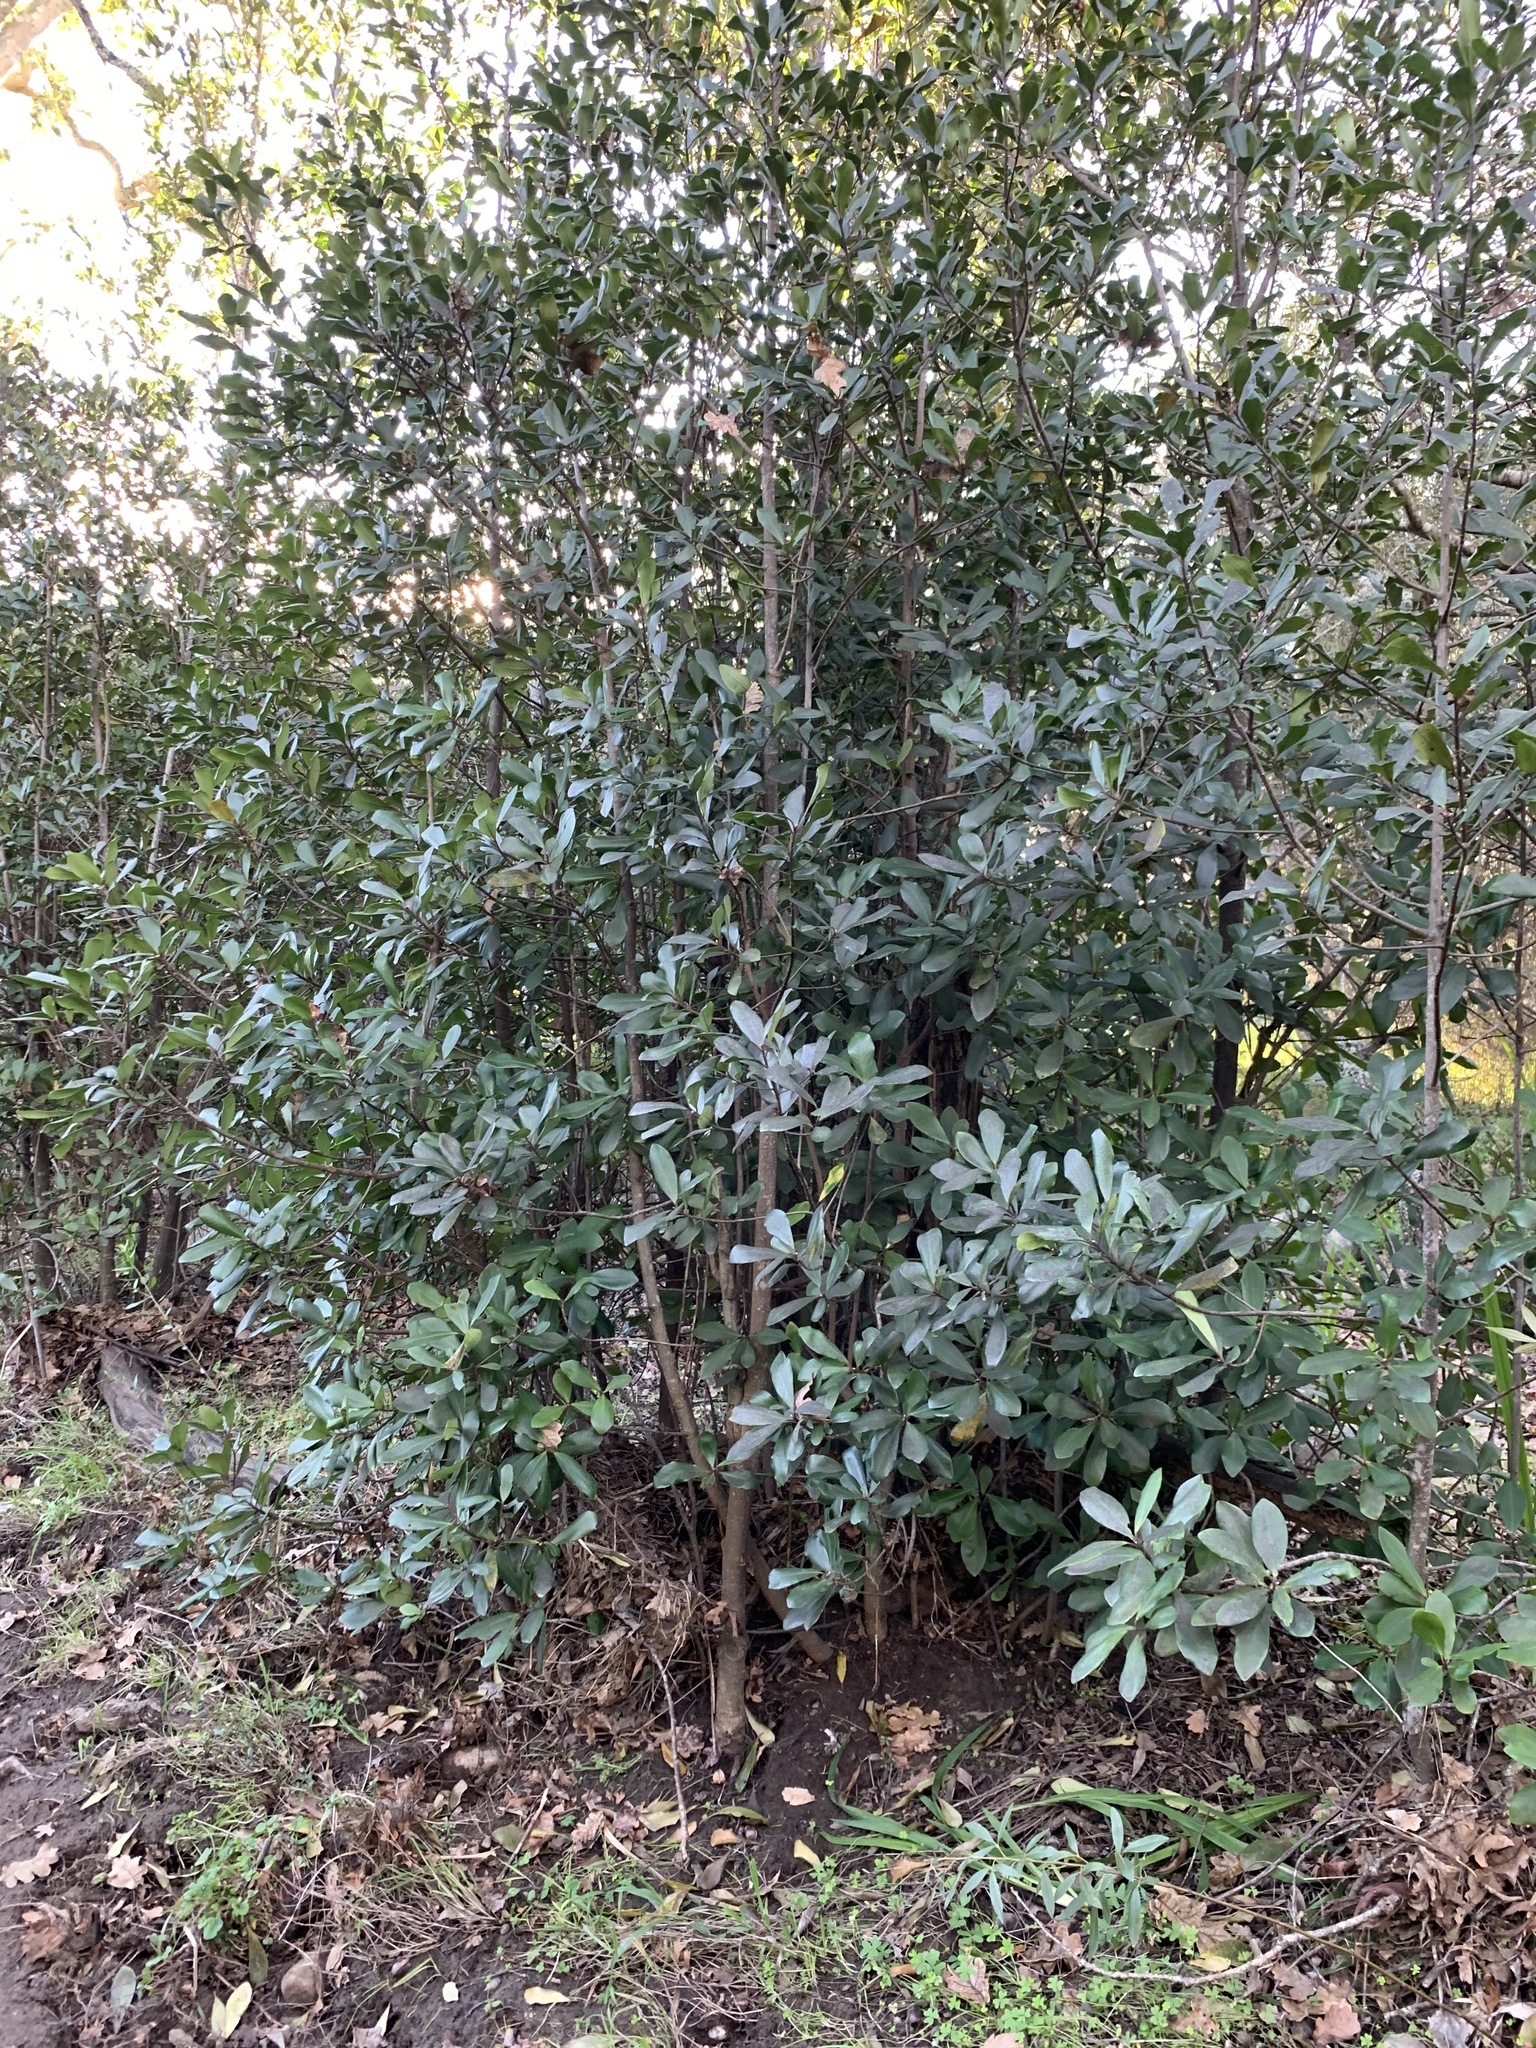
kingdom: Plantae
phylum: Tracheophyta
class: Magnoliopsida
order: Ericales
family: Primulaceae
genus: Myrsine
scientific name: Myrsine melanophloeos
